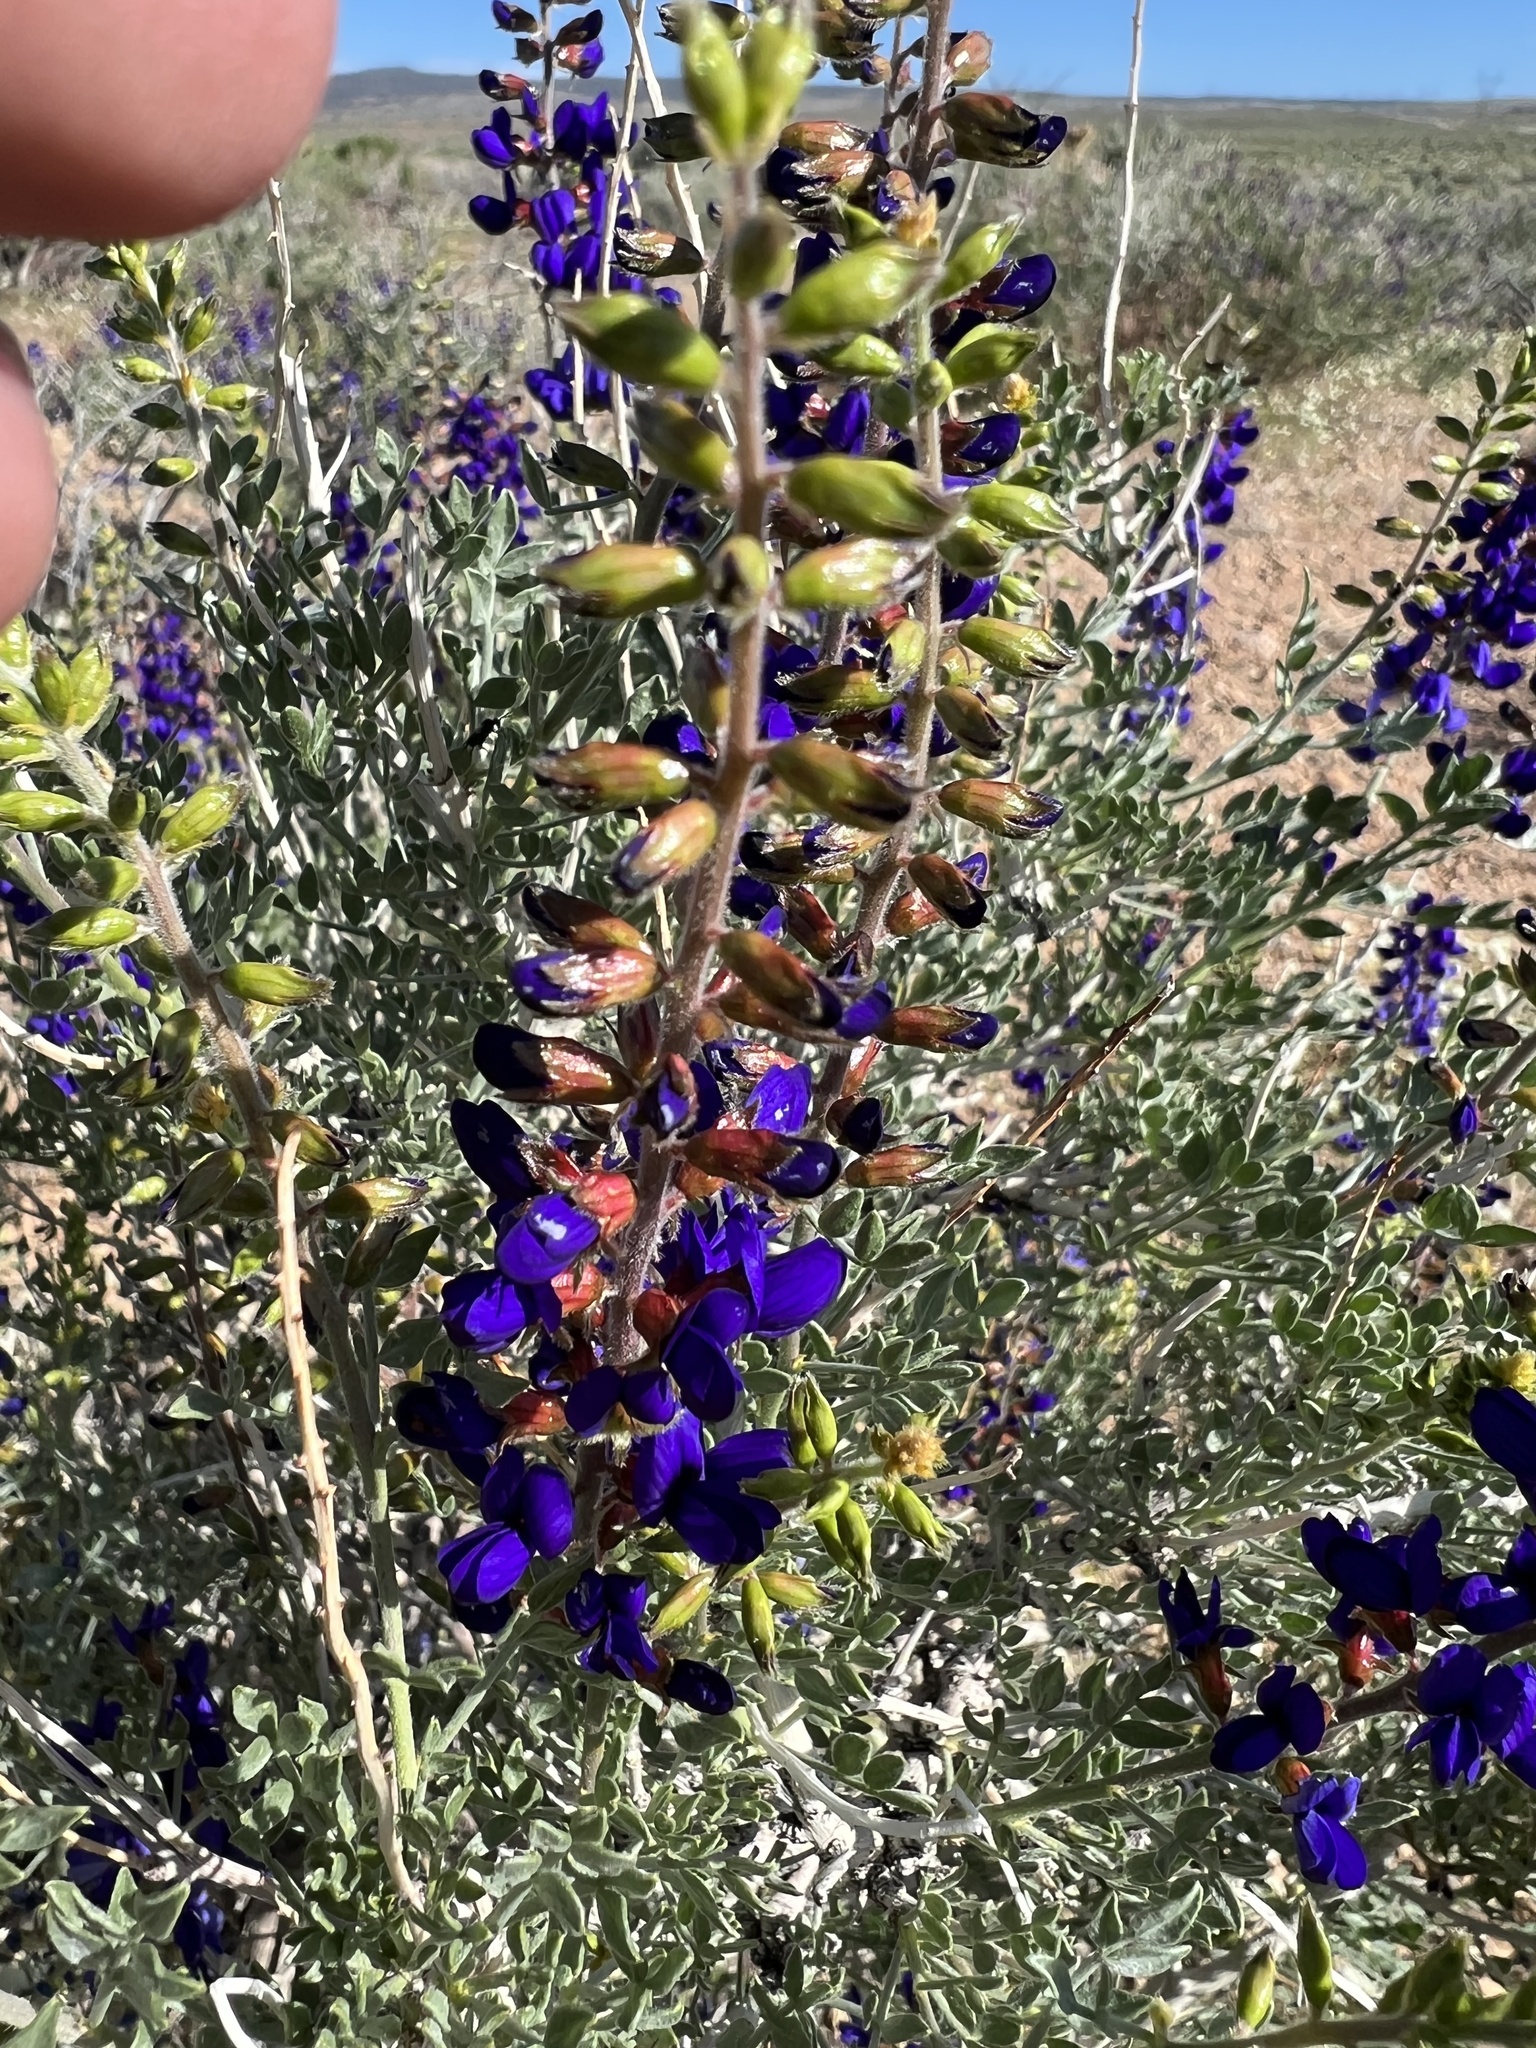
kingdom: Plantae
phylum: Tracheophyta
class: Magnoliopsida
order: Fabales
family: Fabaceae
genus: Psorothamnus
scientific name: Psorothamnus arborescens
